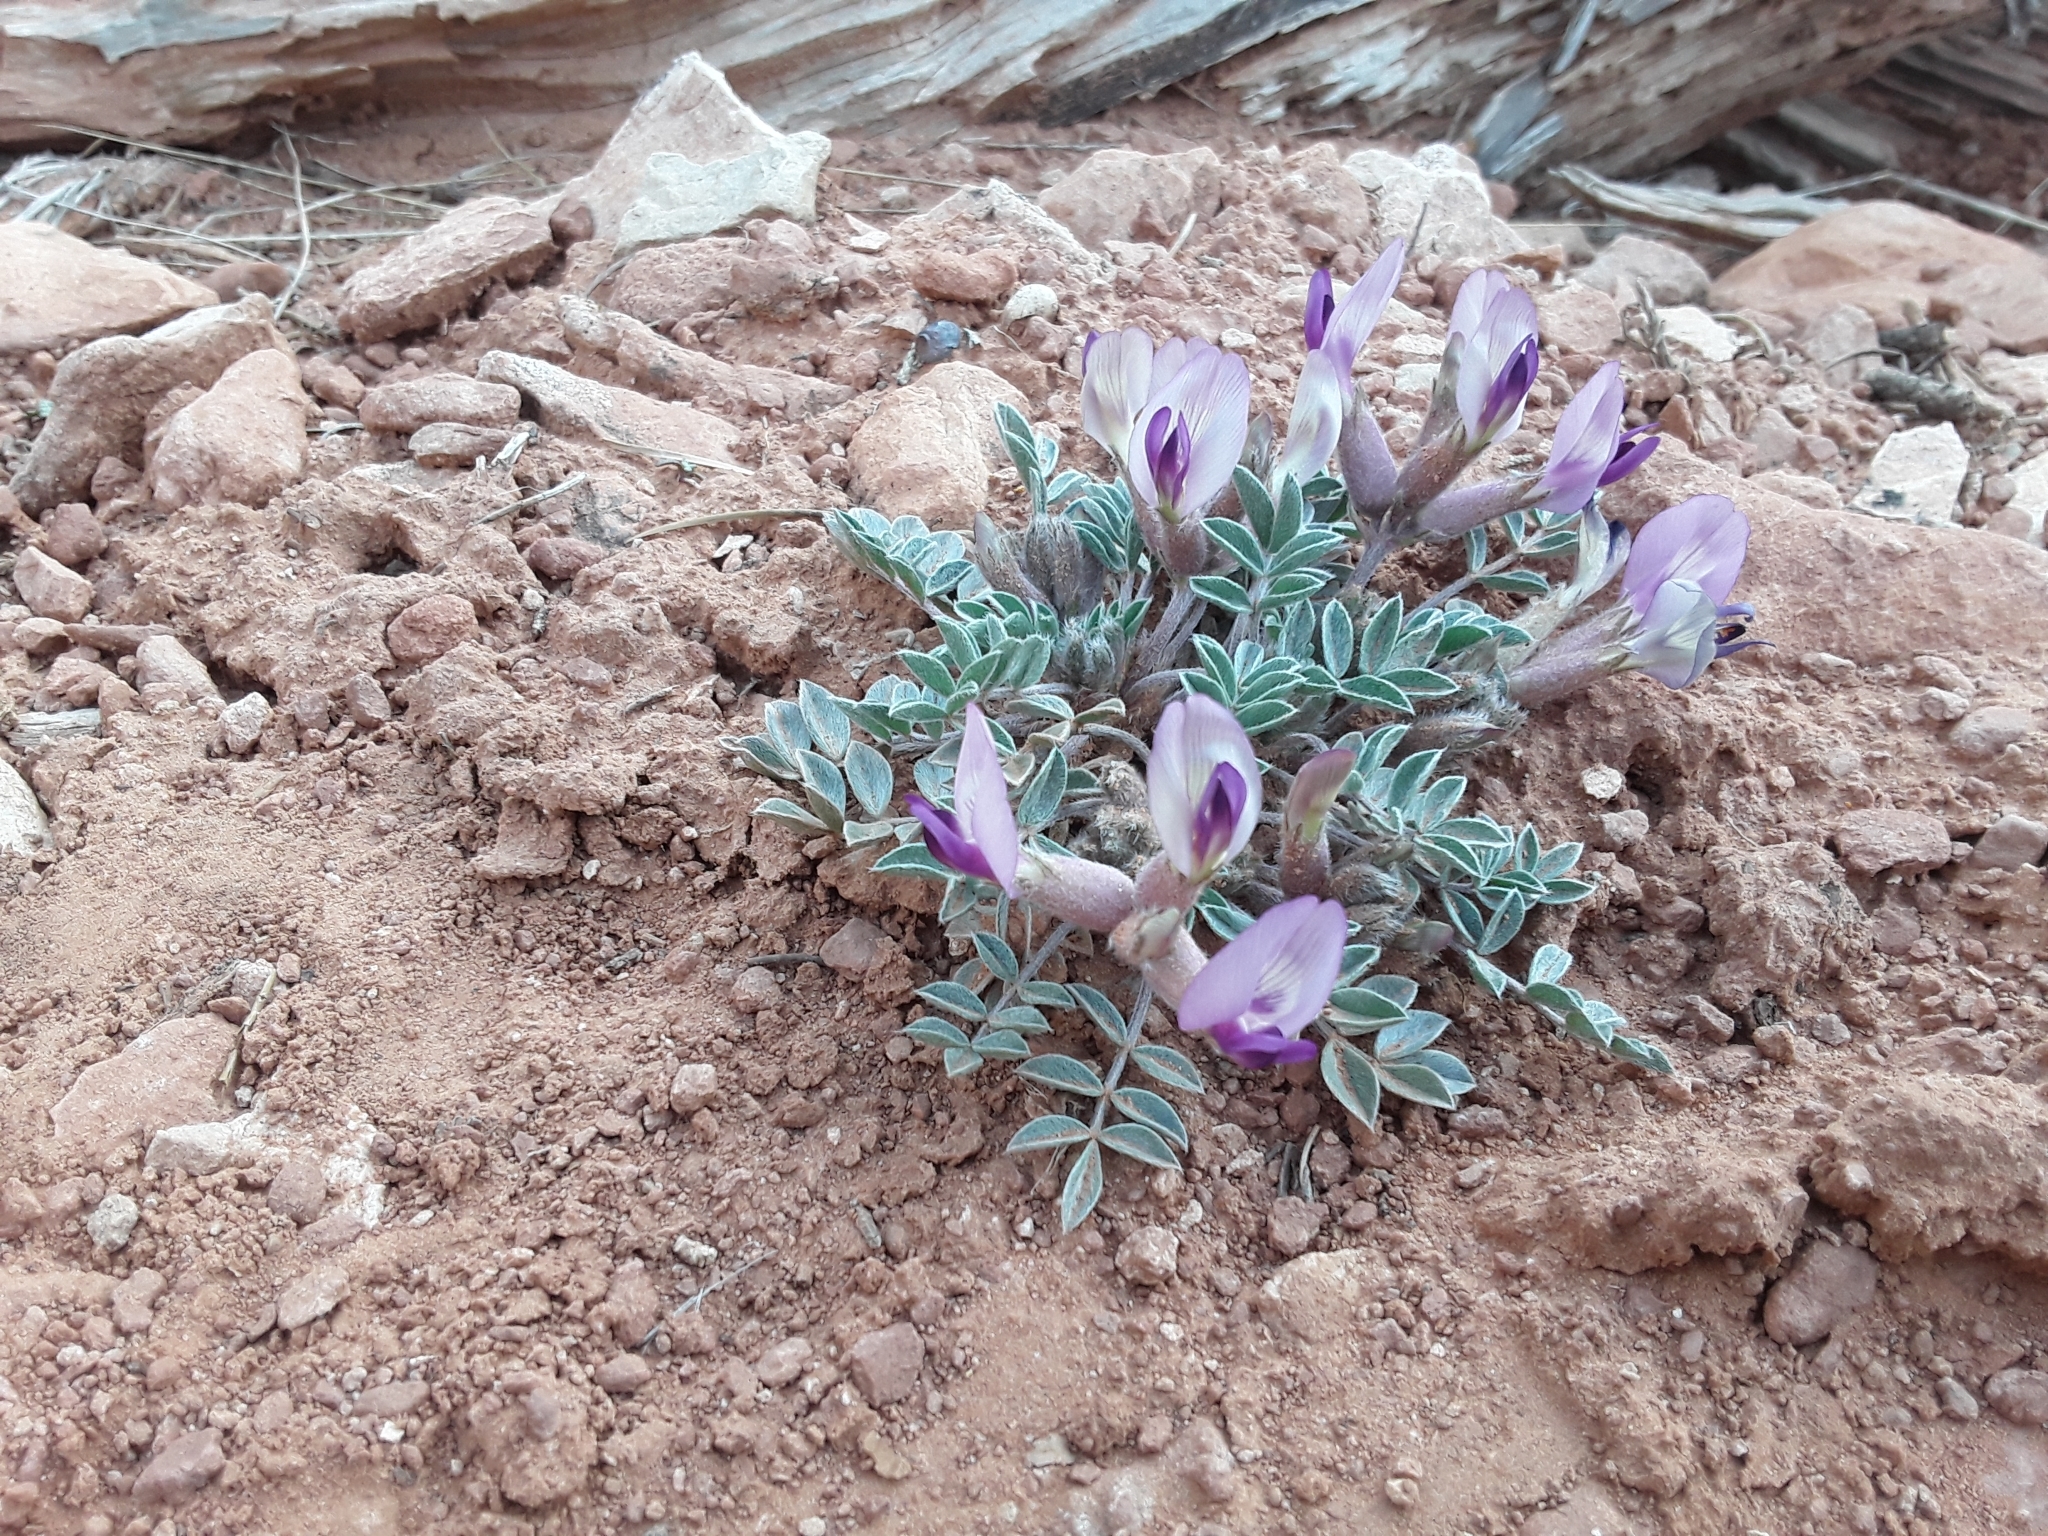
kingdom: Plantae
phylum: Tracheophyta
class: Magnoliopsida
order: Fabales
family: Fabaceae
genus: Astragalus
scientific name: Astragalus newberryi
